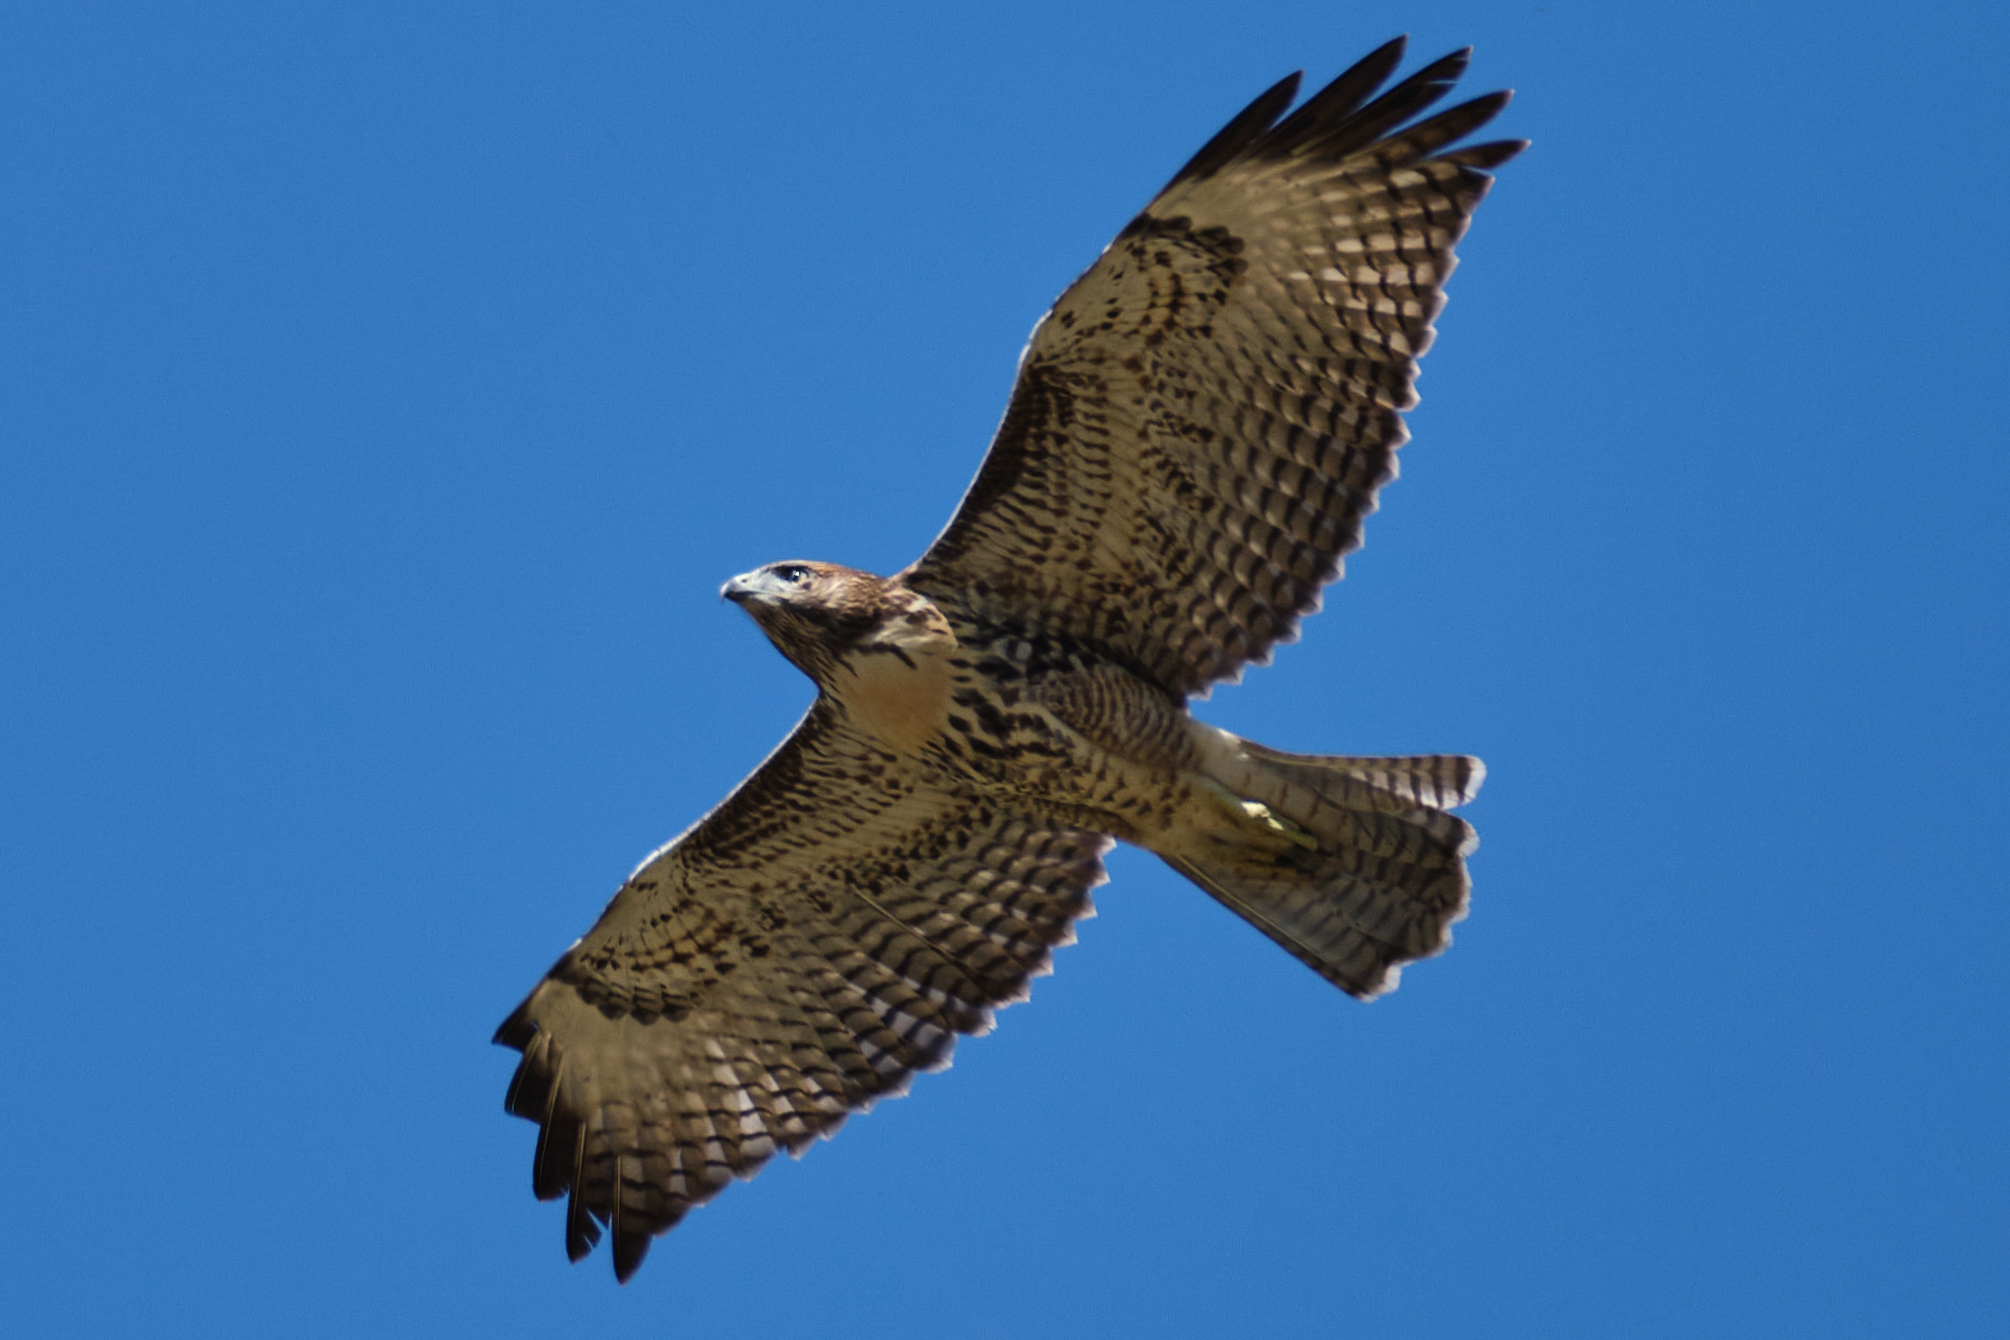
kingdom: Animalia
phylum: Chordata
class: Aves
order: Accipitriformes
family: Accipitridae
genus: Buteo
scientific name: Buteo jamaicensis
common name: Red-tailed hawk
